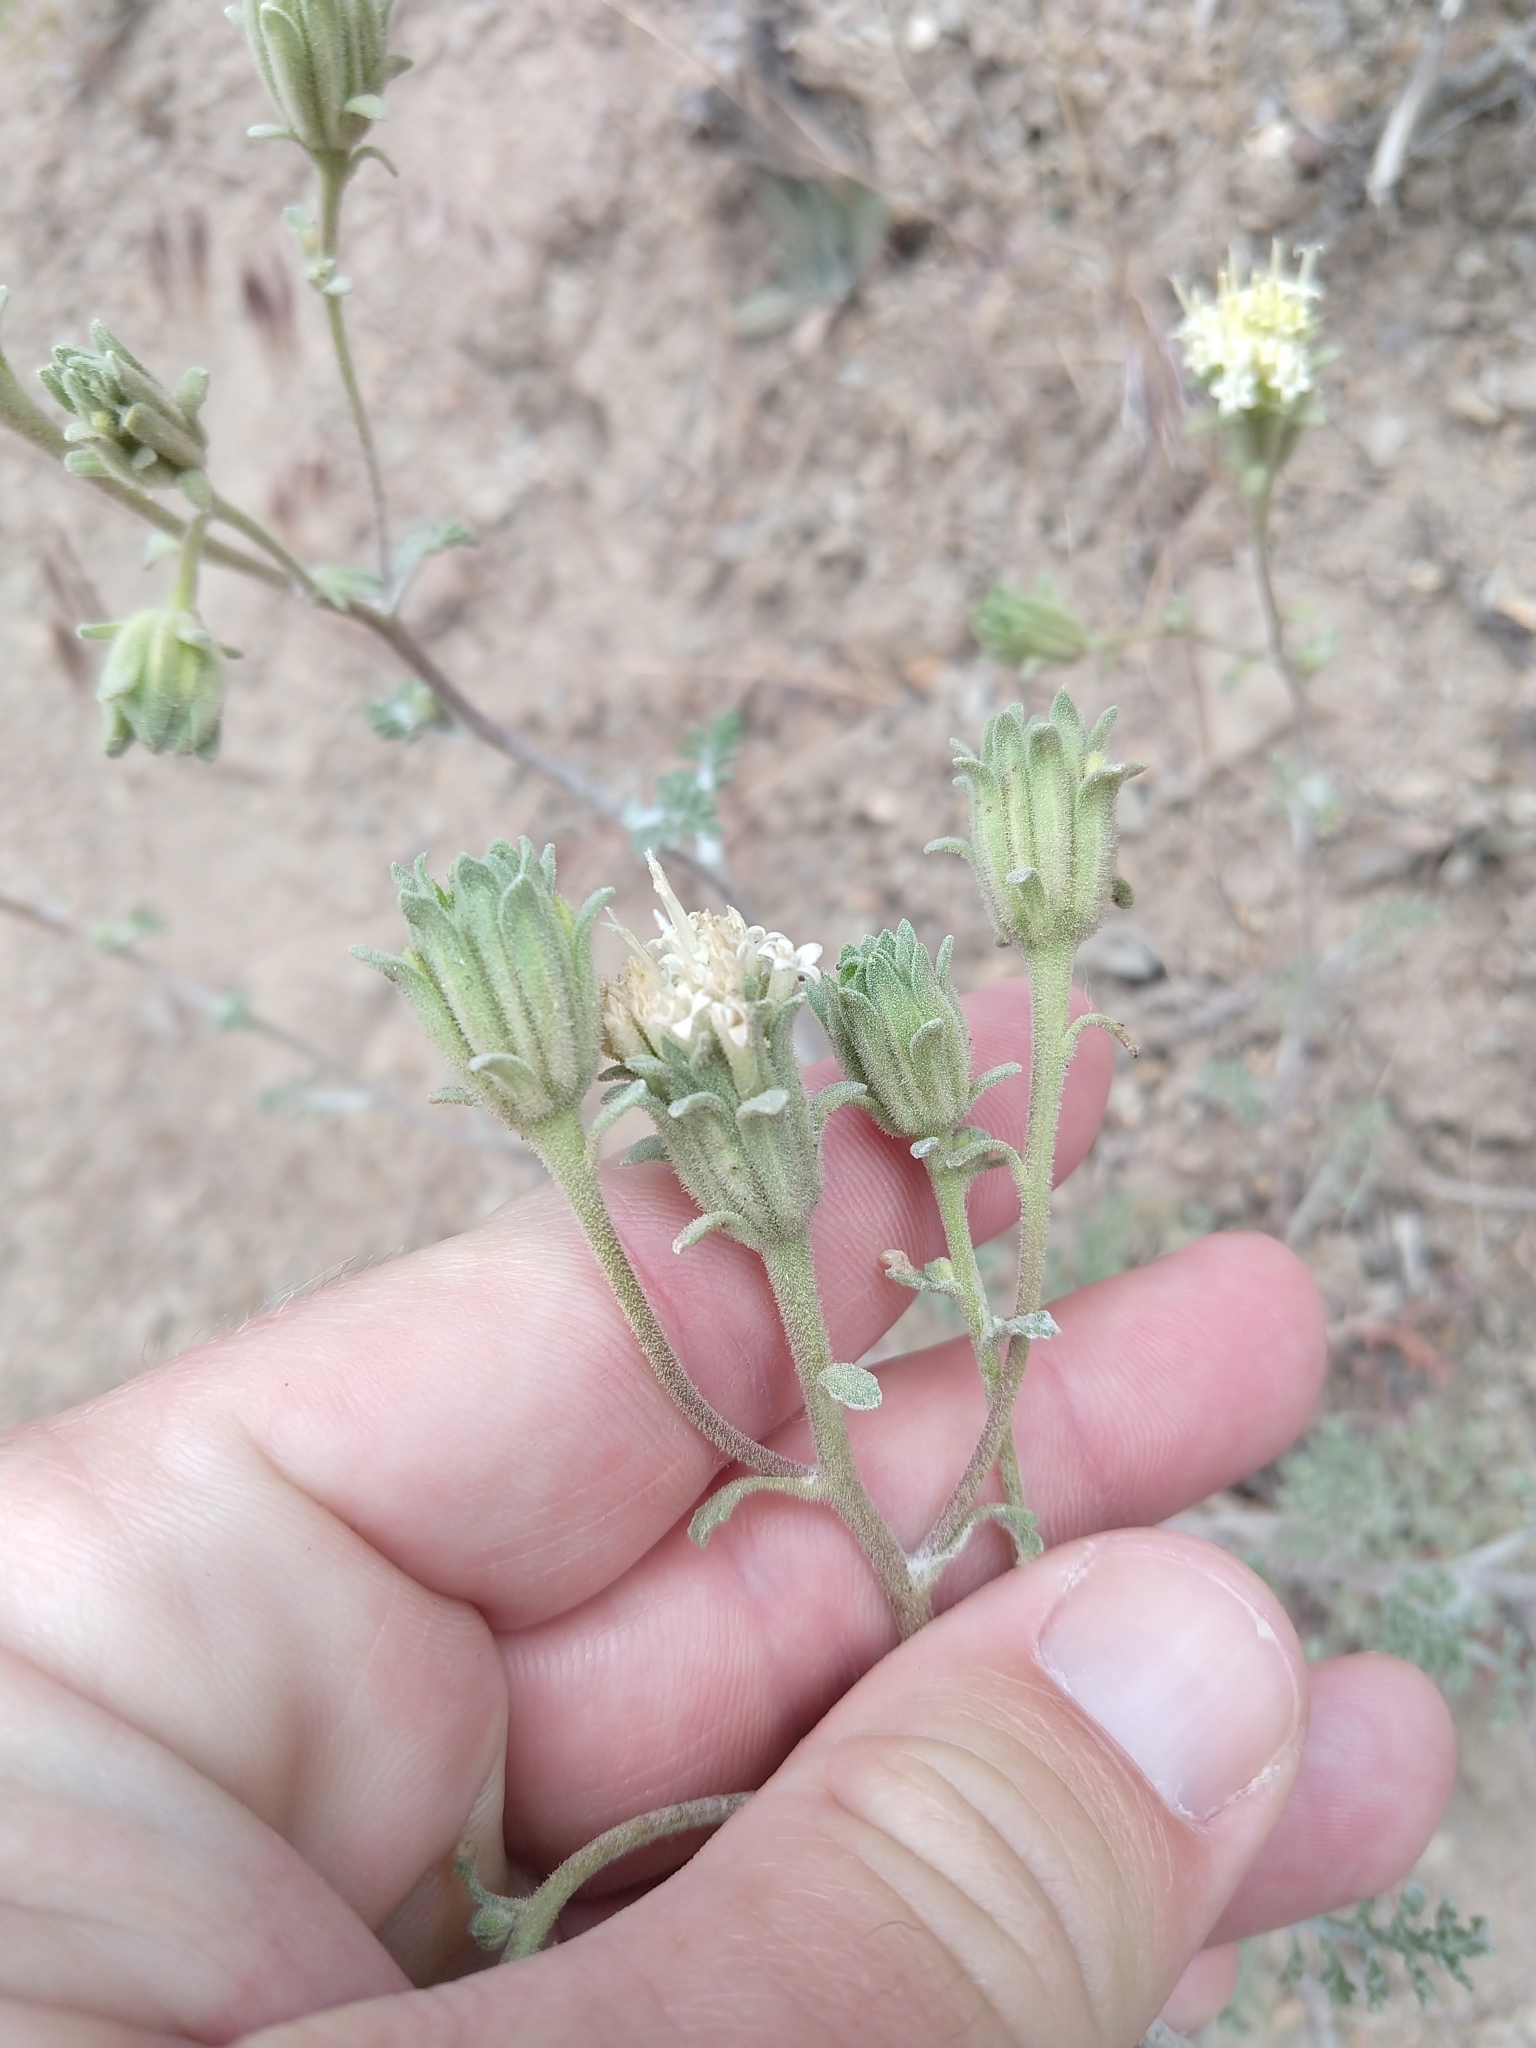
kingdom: Plantae
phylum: Tracheophyta
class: Magnoliopsida
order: Asterales
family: Asteraceae
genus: Chaenactis
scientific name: Chaenactis douglasii
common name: Hoary pincushion
